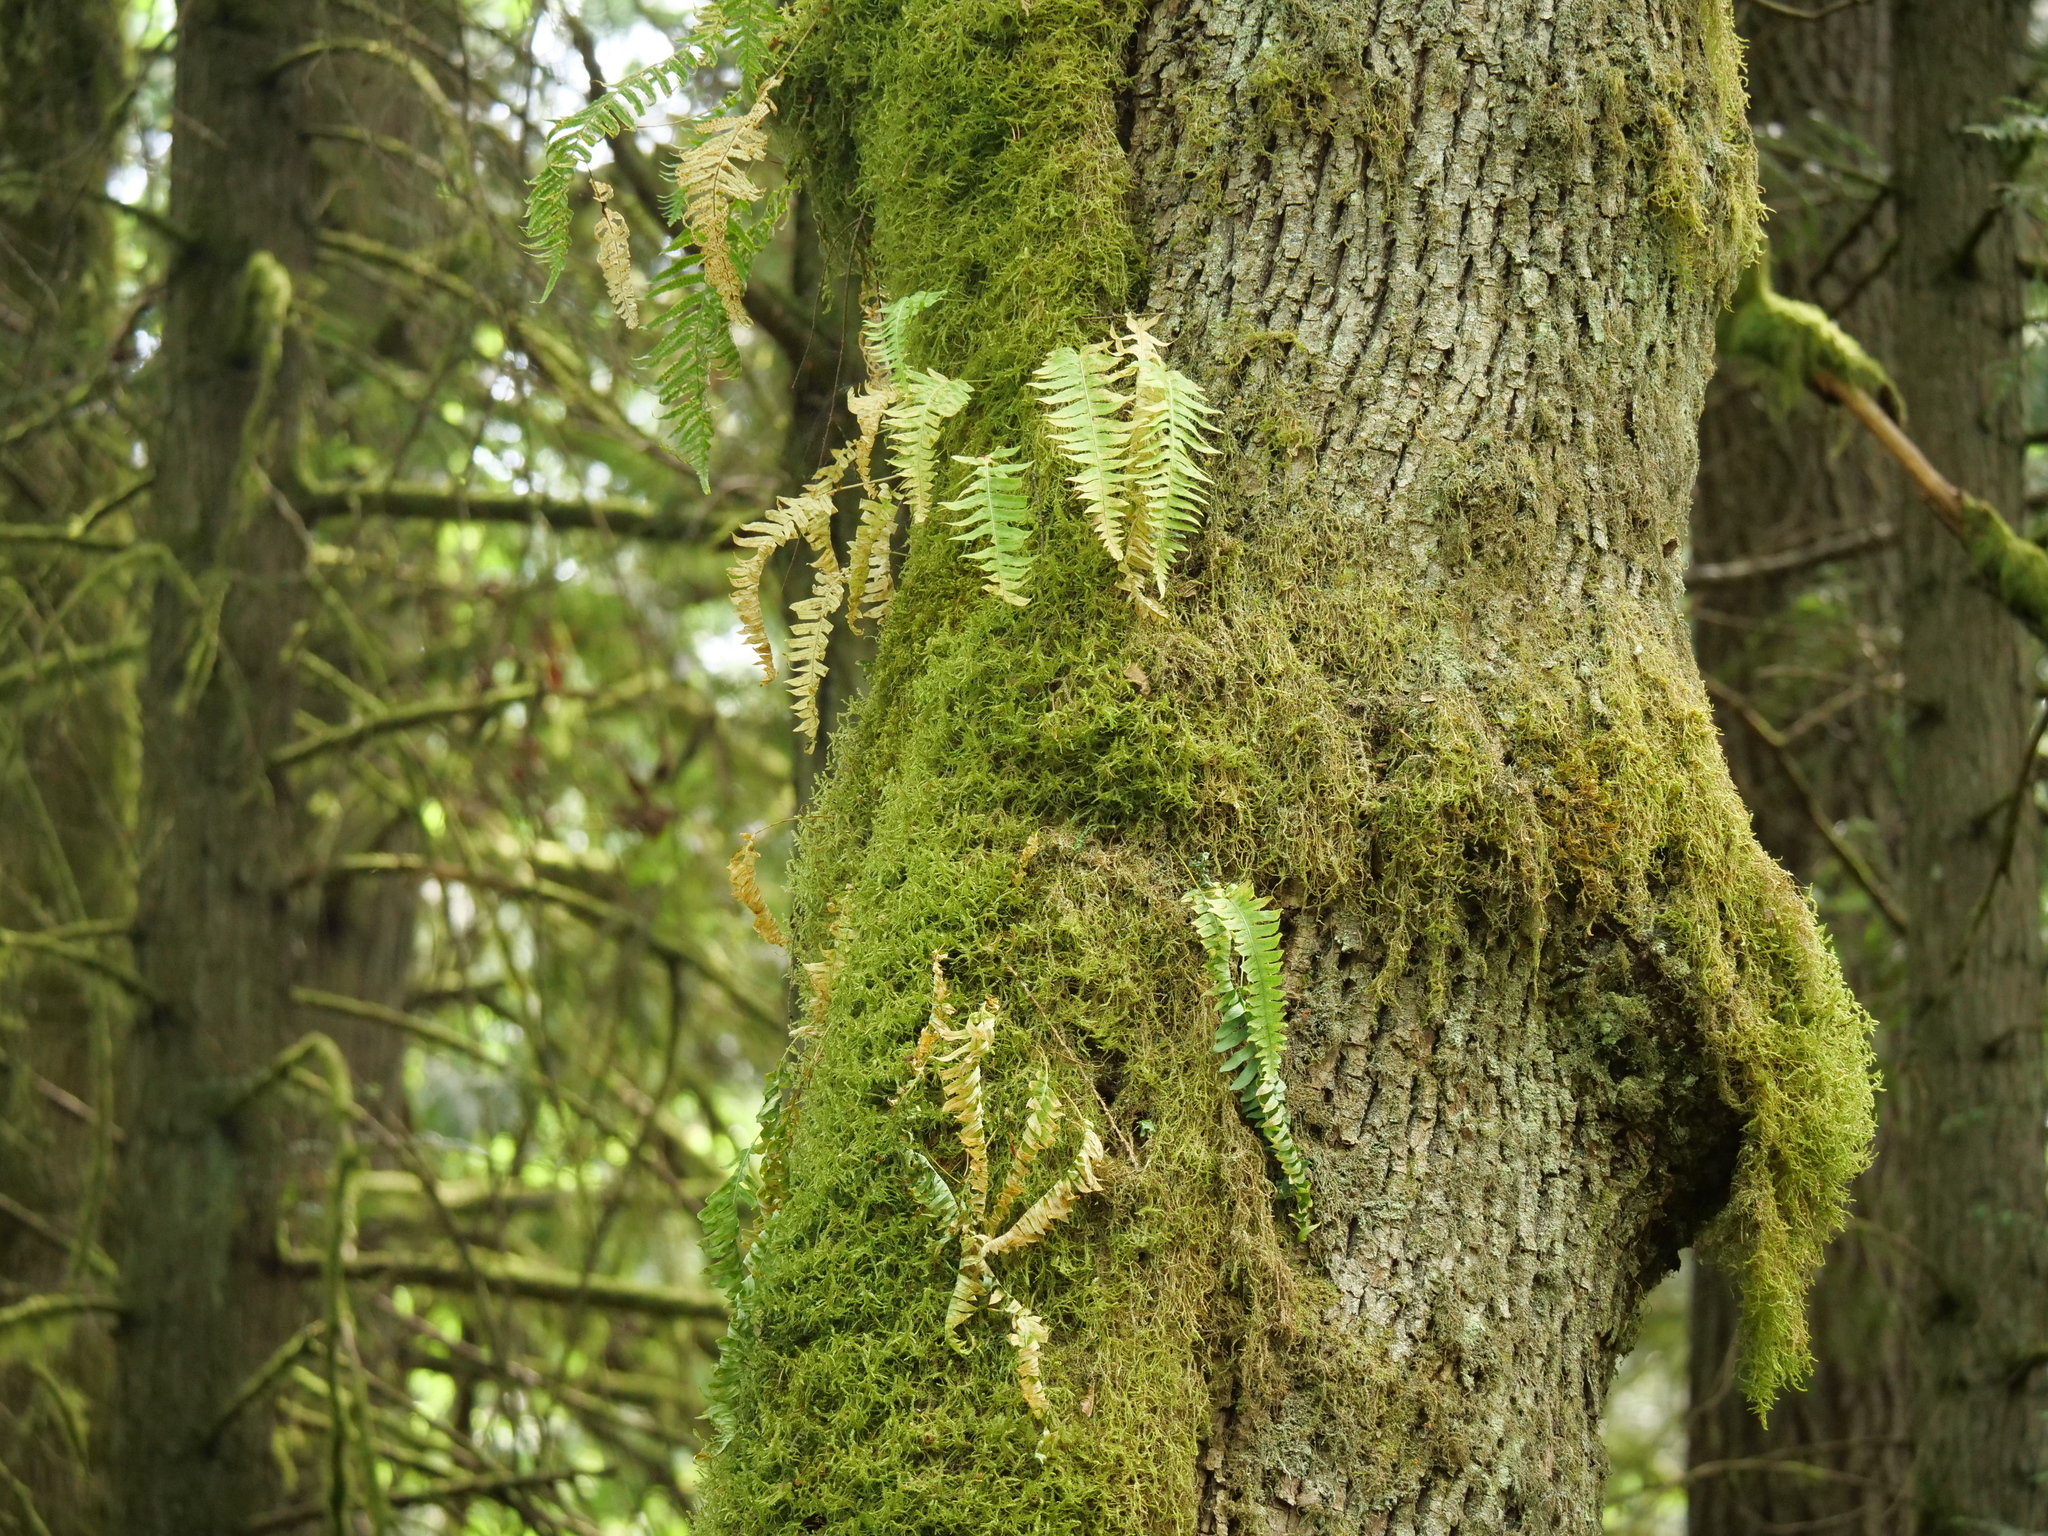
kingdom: Plantae
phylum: Tracheophyta
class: Polypodiopsida
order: Polypodiales
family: Polypodiaceae
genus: Polypodium
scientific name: Polypodium glycyrrhiza
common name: Licorice fern
